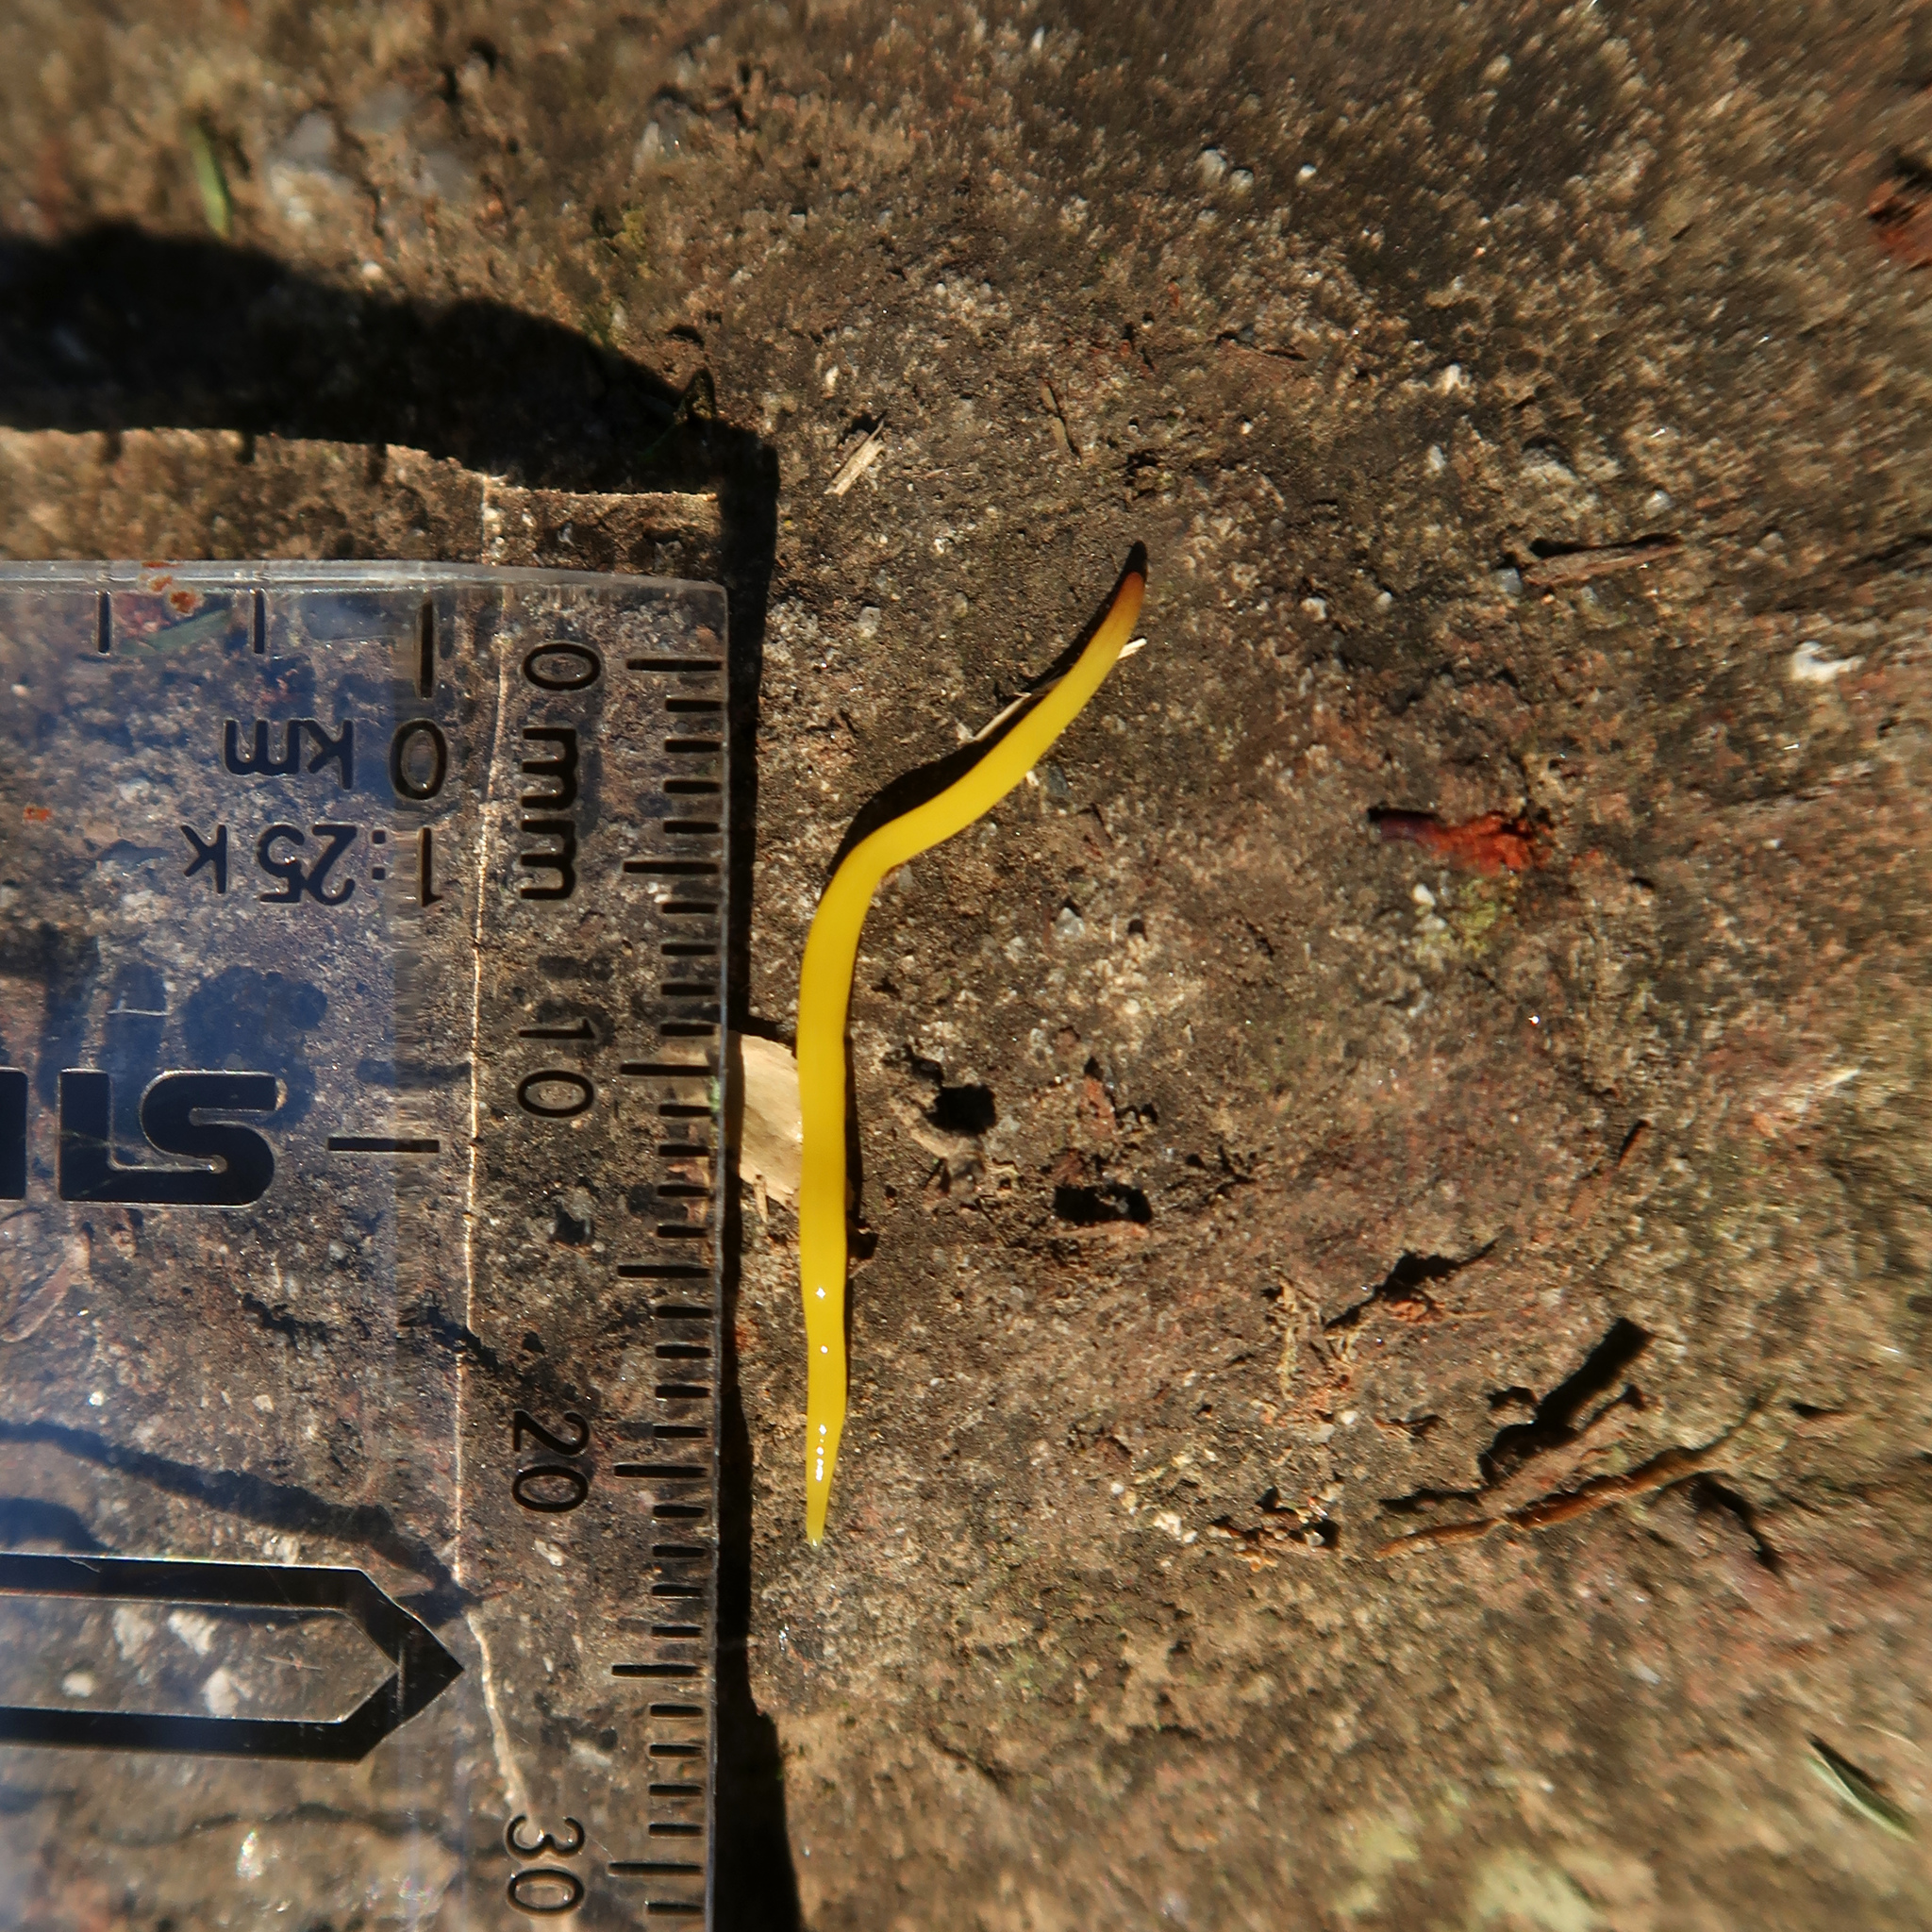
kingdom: Animalia
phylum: Platyhelminthes
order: Tricladida
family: Geoplanidae
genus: Fletchamia
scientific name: Fletchamia sugdeni
